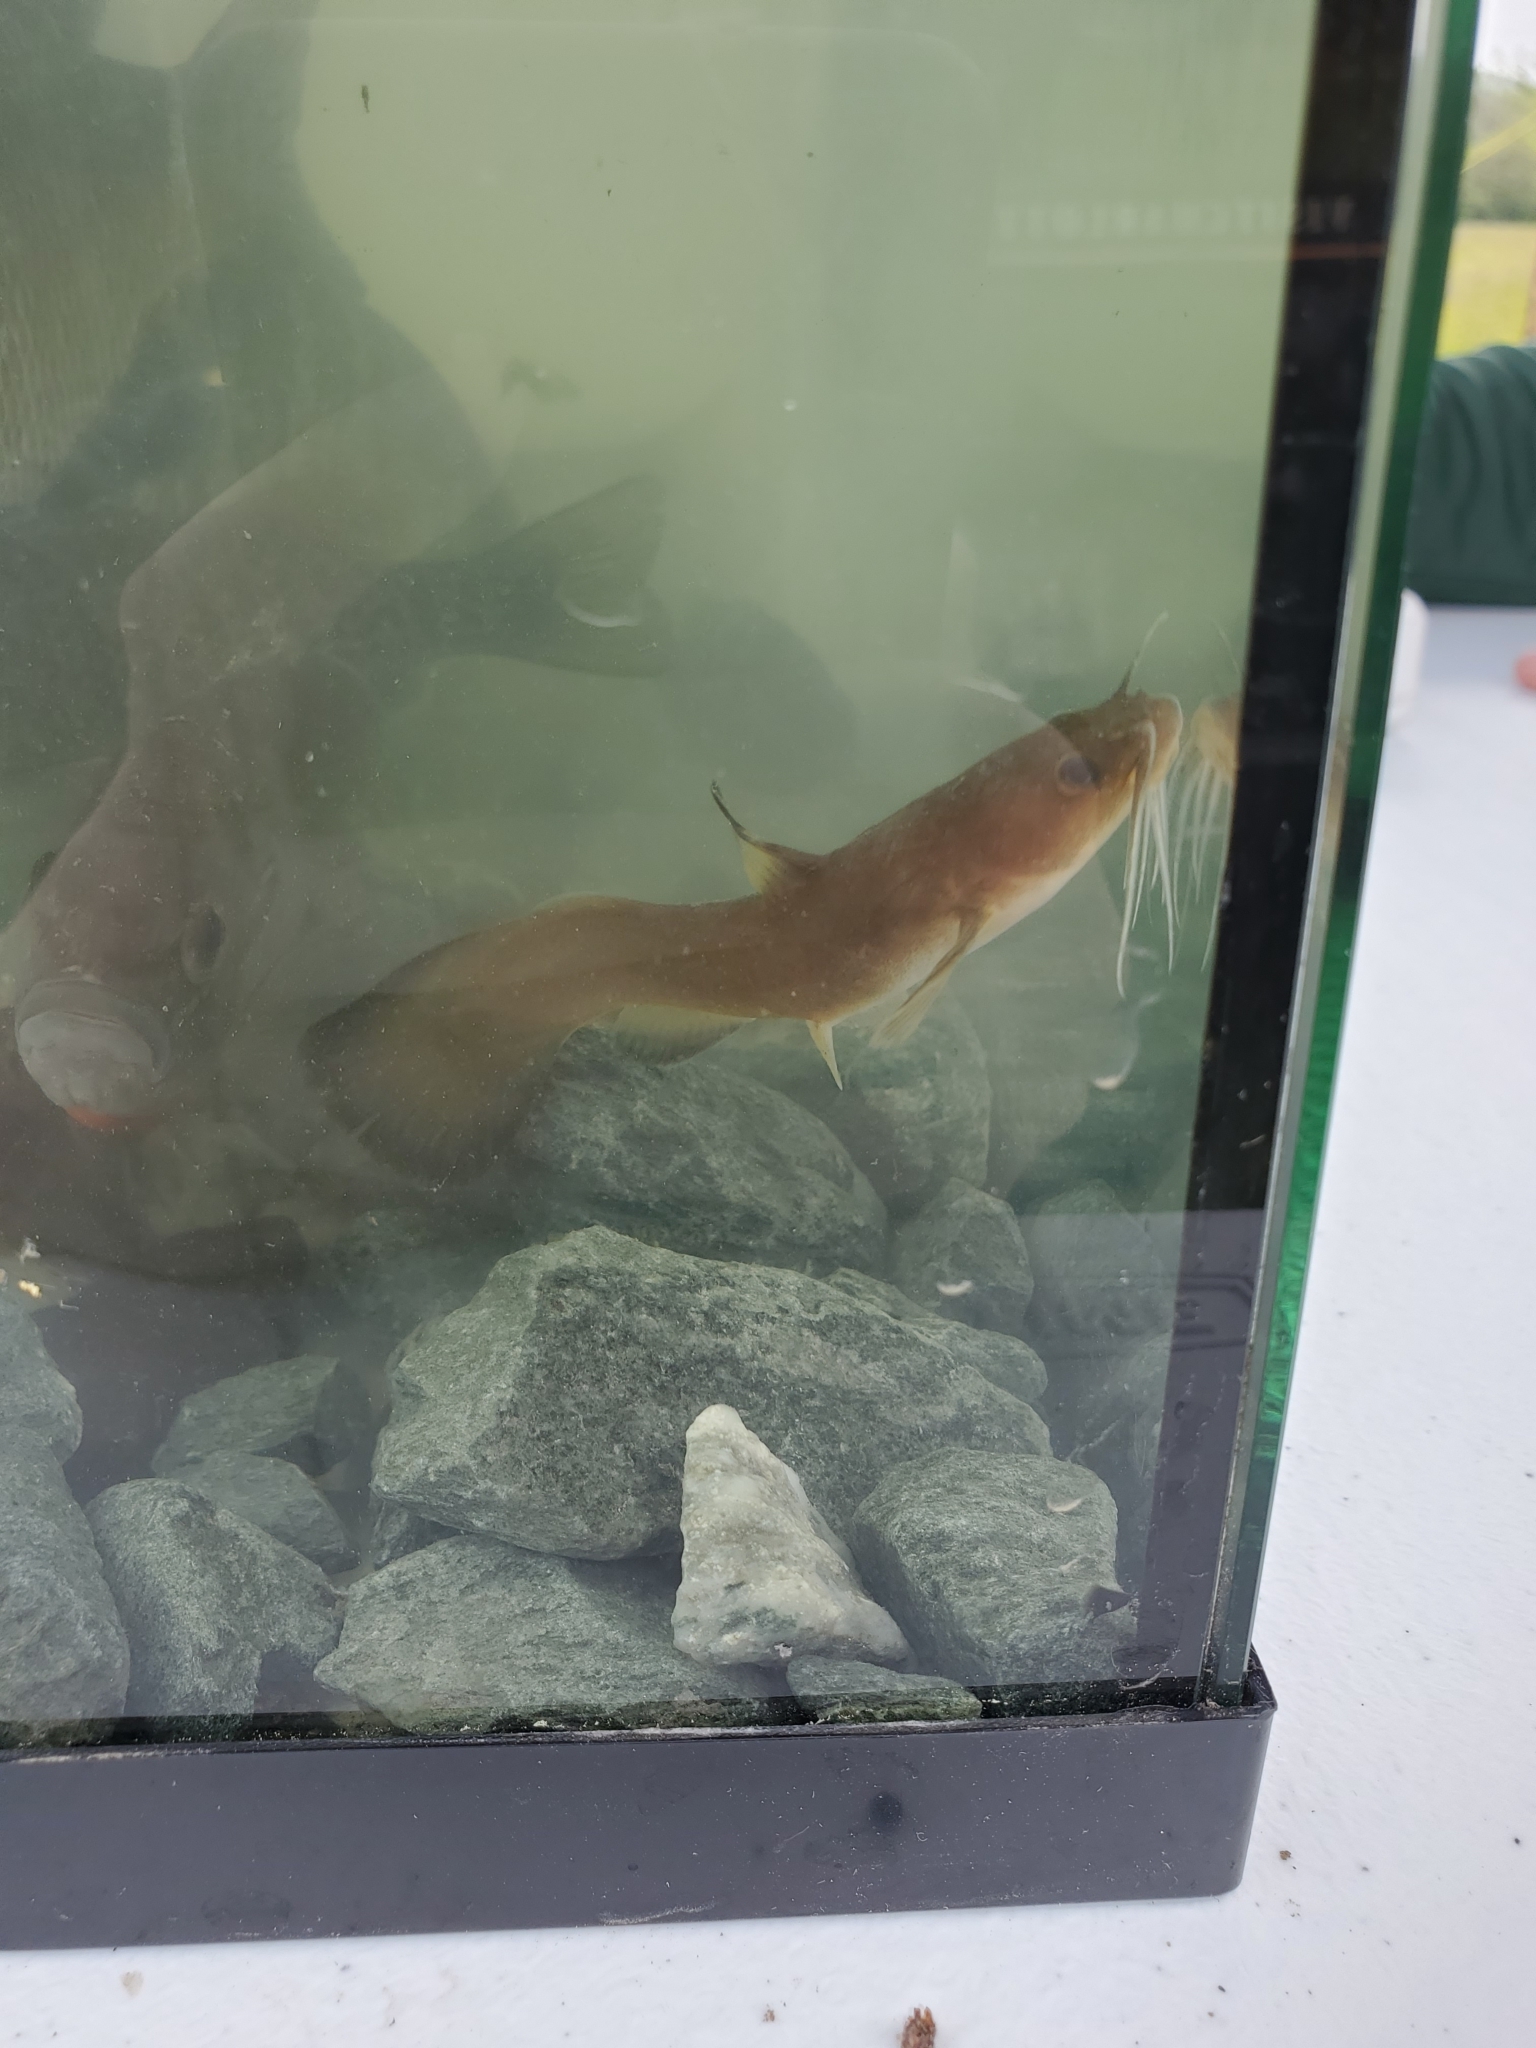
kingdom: Animalia
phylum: Chordata
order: Siluriformes
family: Ictaluridae
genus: Noturus
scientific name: Noturus insignis
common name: Margined madtom
